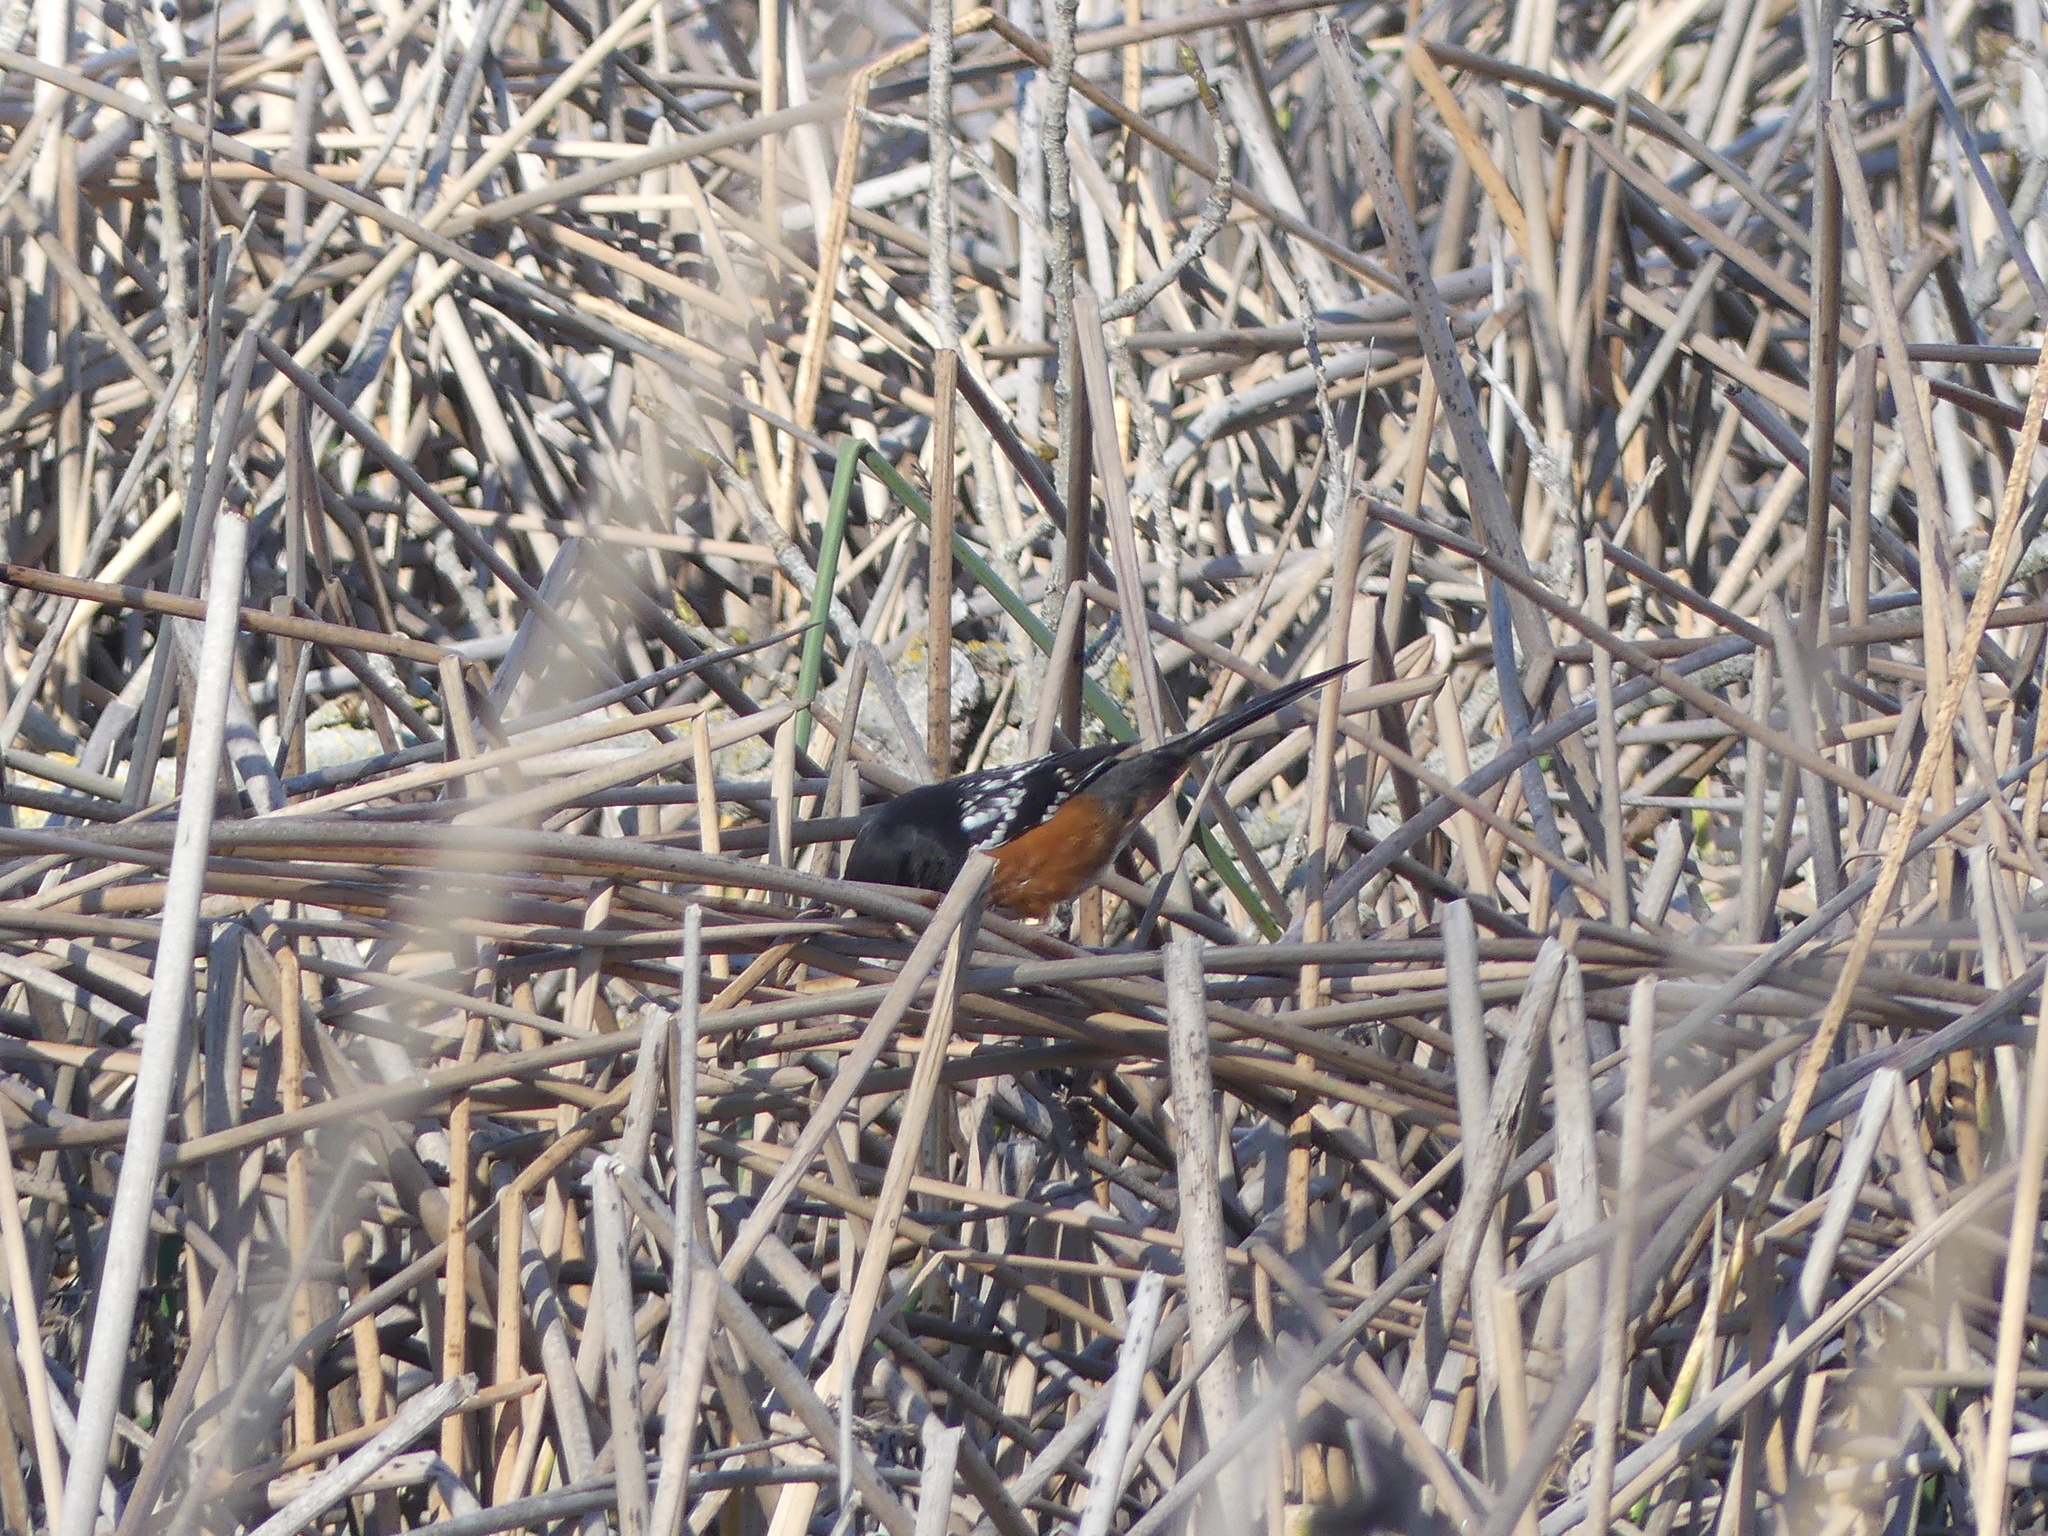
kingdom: Animalia
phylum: Chordata
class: Aves
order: Passeriformes
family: Passerellidae
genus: Pipilo
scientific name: Pipilo maculatus
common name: Spotted towhee
